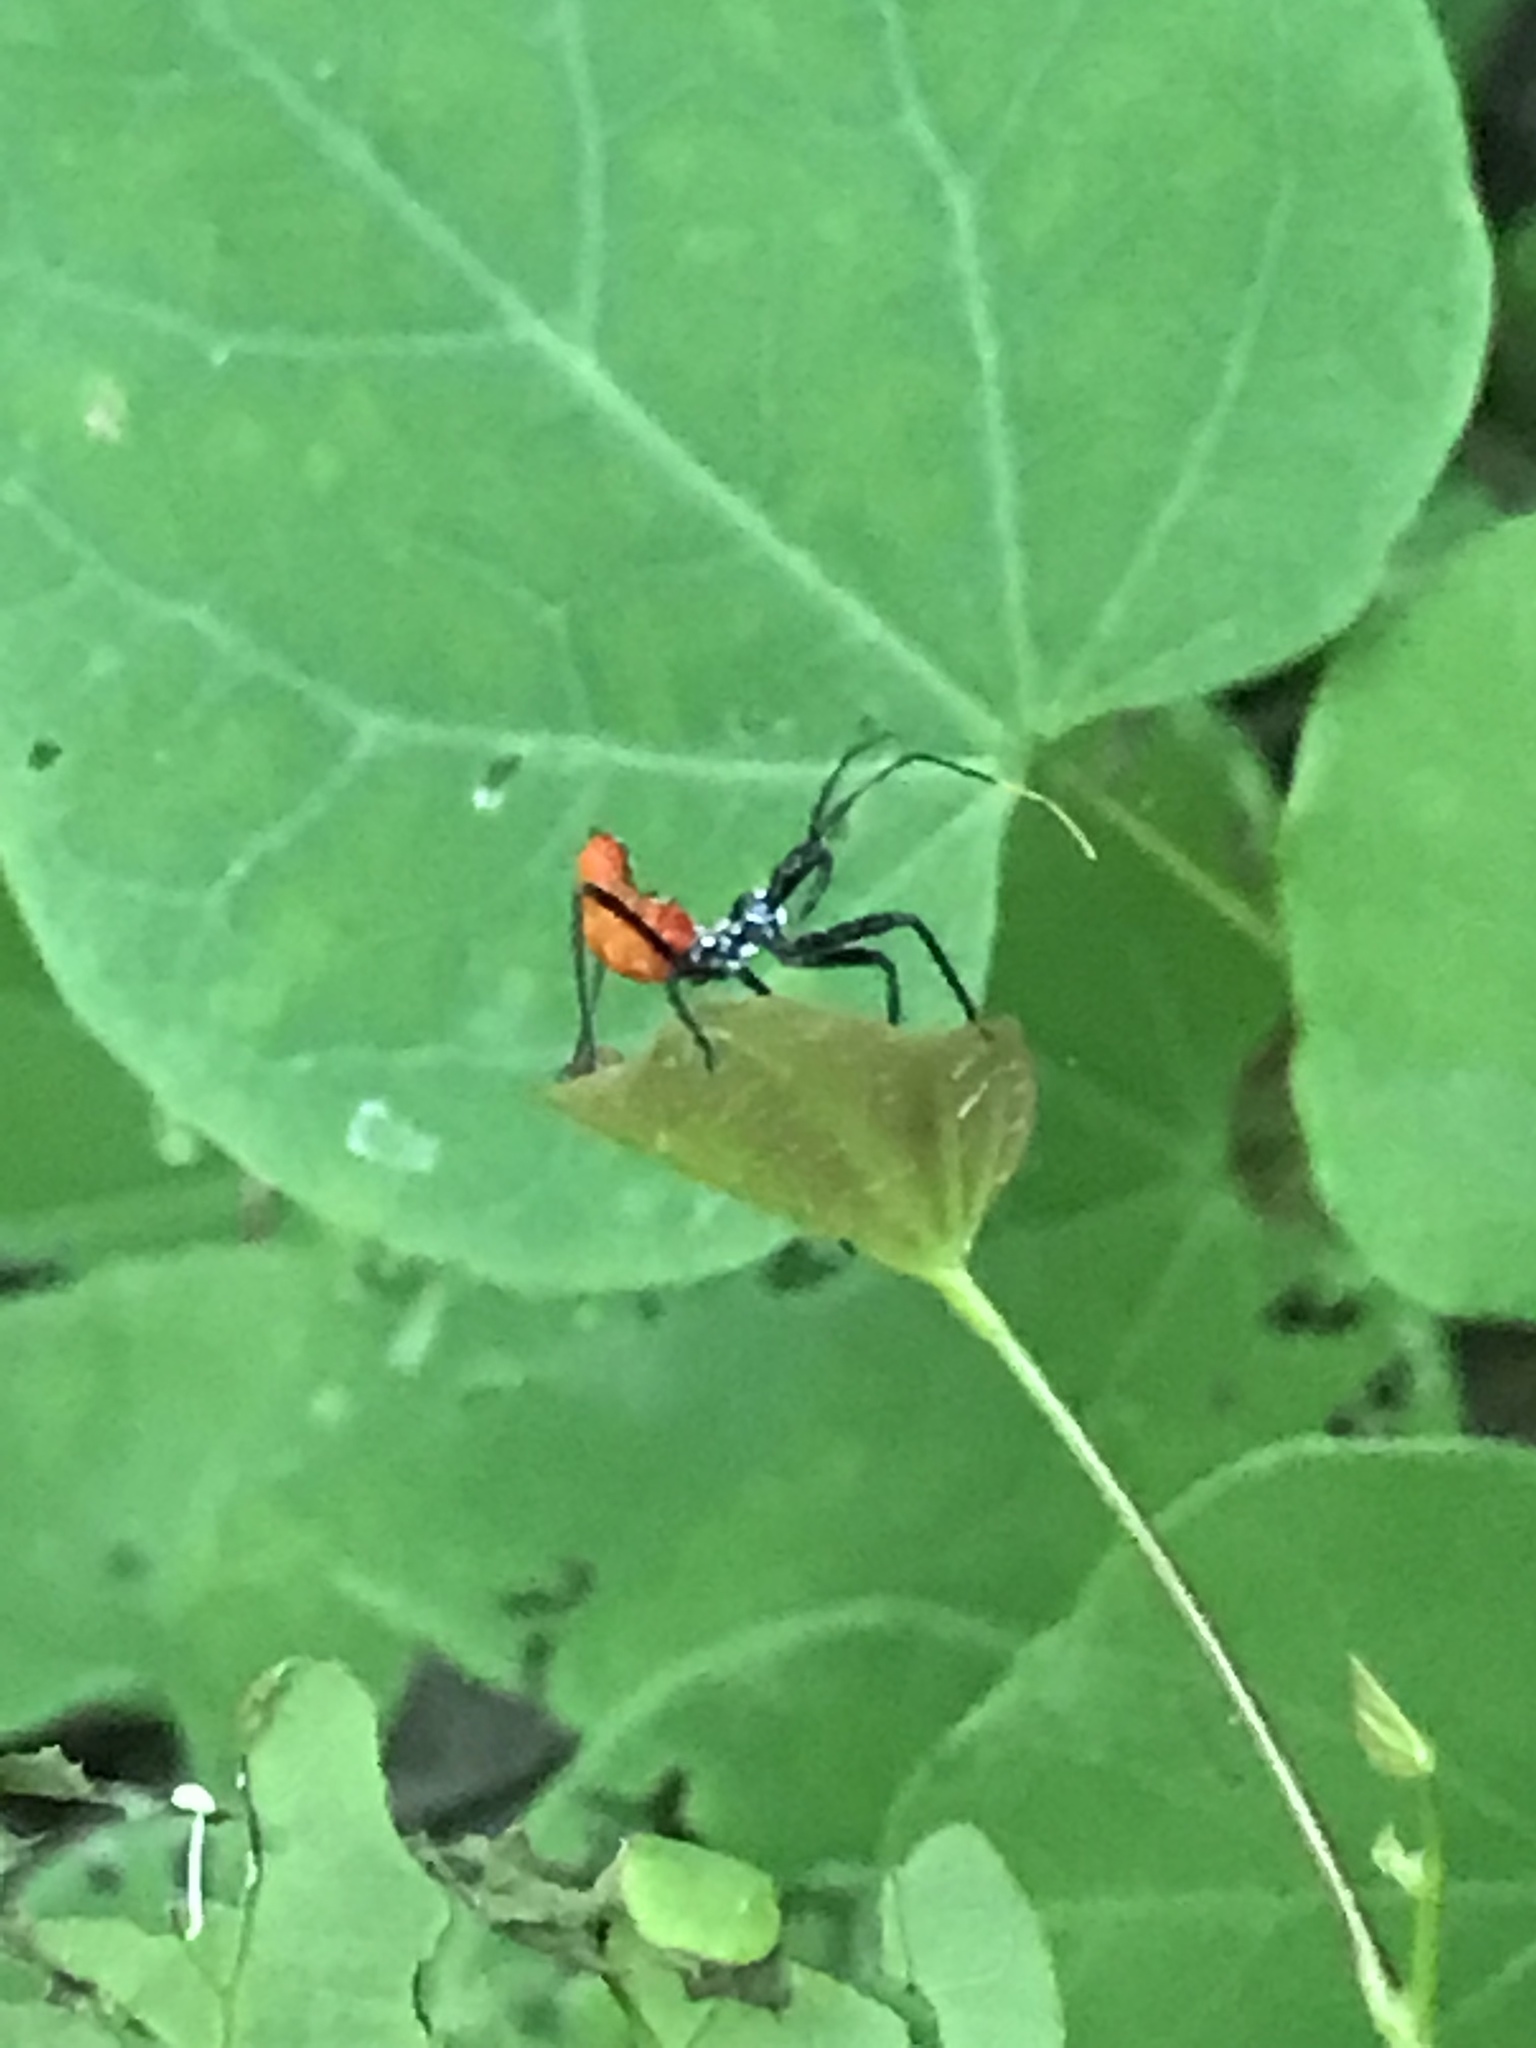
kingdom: Animalia
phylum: Arthropoda
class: Insecta
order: Hemiptera
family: Reduviidae
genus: Arilus
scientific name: Arilus cristatus
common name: North american wheel bug
